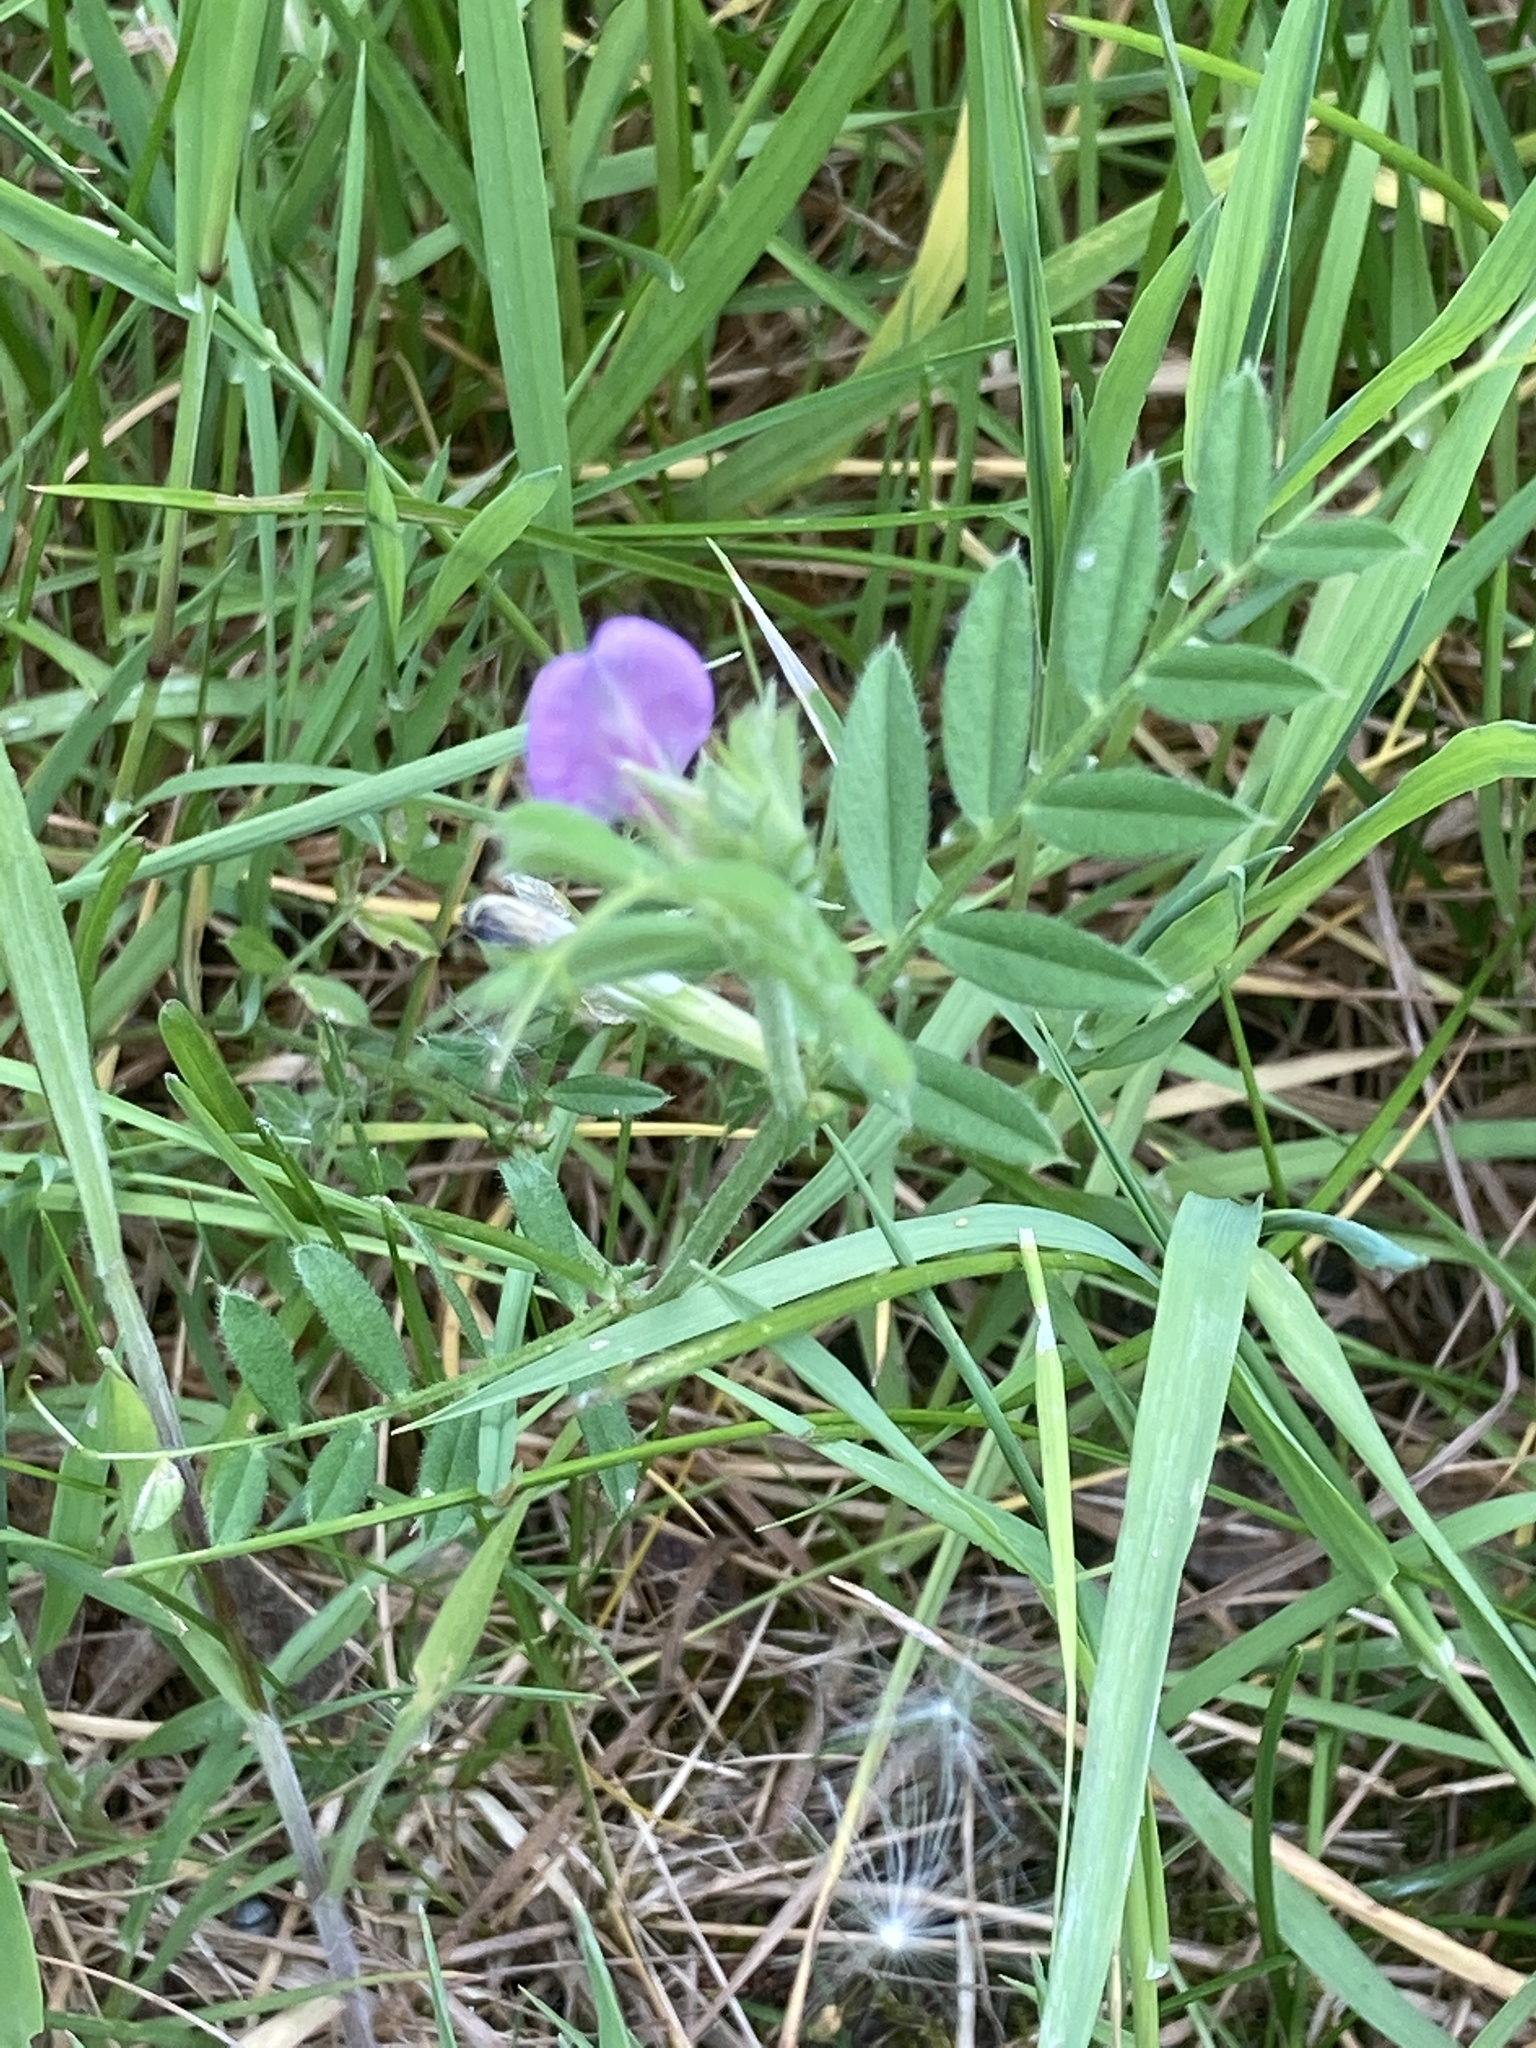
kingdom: Plantae
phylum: Tracheophyta
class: Magnoliopsida
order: Fabales
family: Fabaceae
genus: Vicia
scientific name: Vicia sativa
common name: Garden vetch
